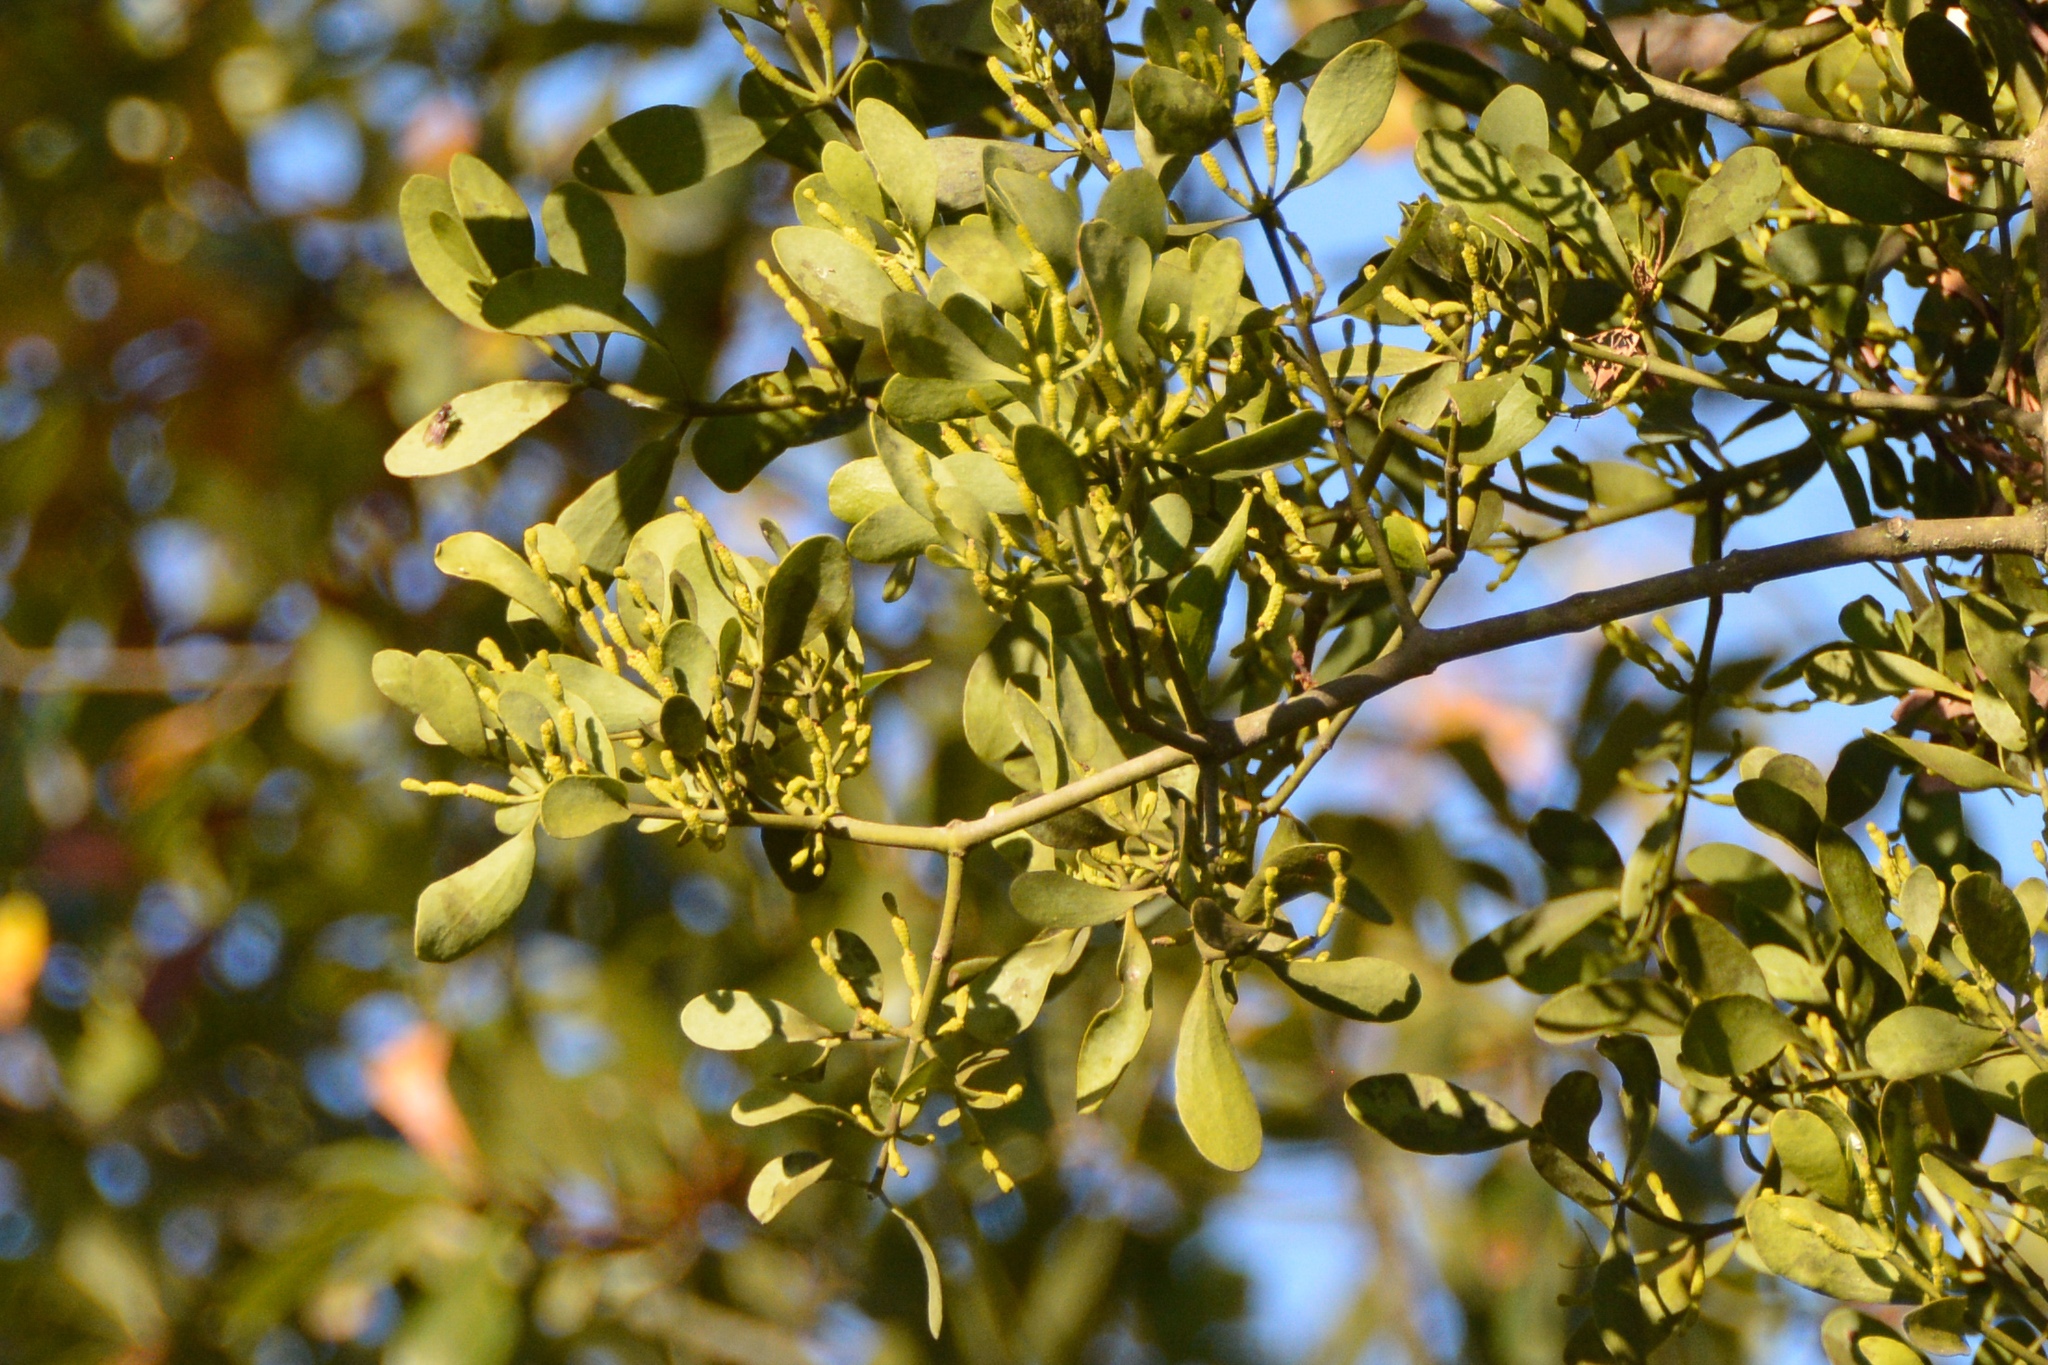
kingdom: Plantae
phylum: Tracheophyta
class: Magnoliopsida
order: Santalales
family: Viscaceae
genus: Phoradendron
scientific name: Phoradendron leucarpum
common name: Pacific mistletoe
